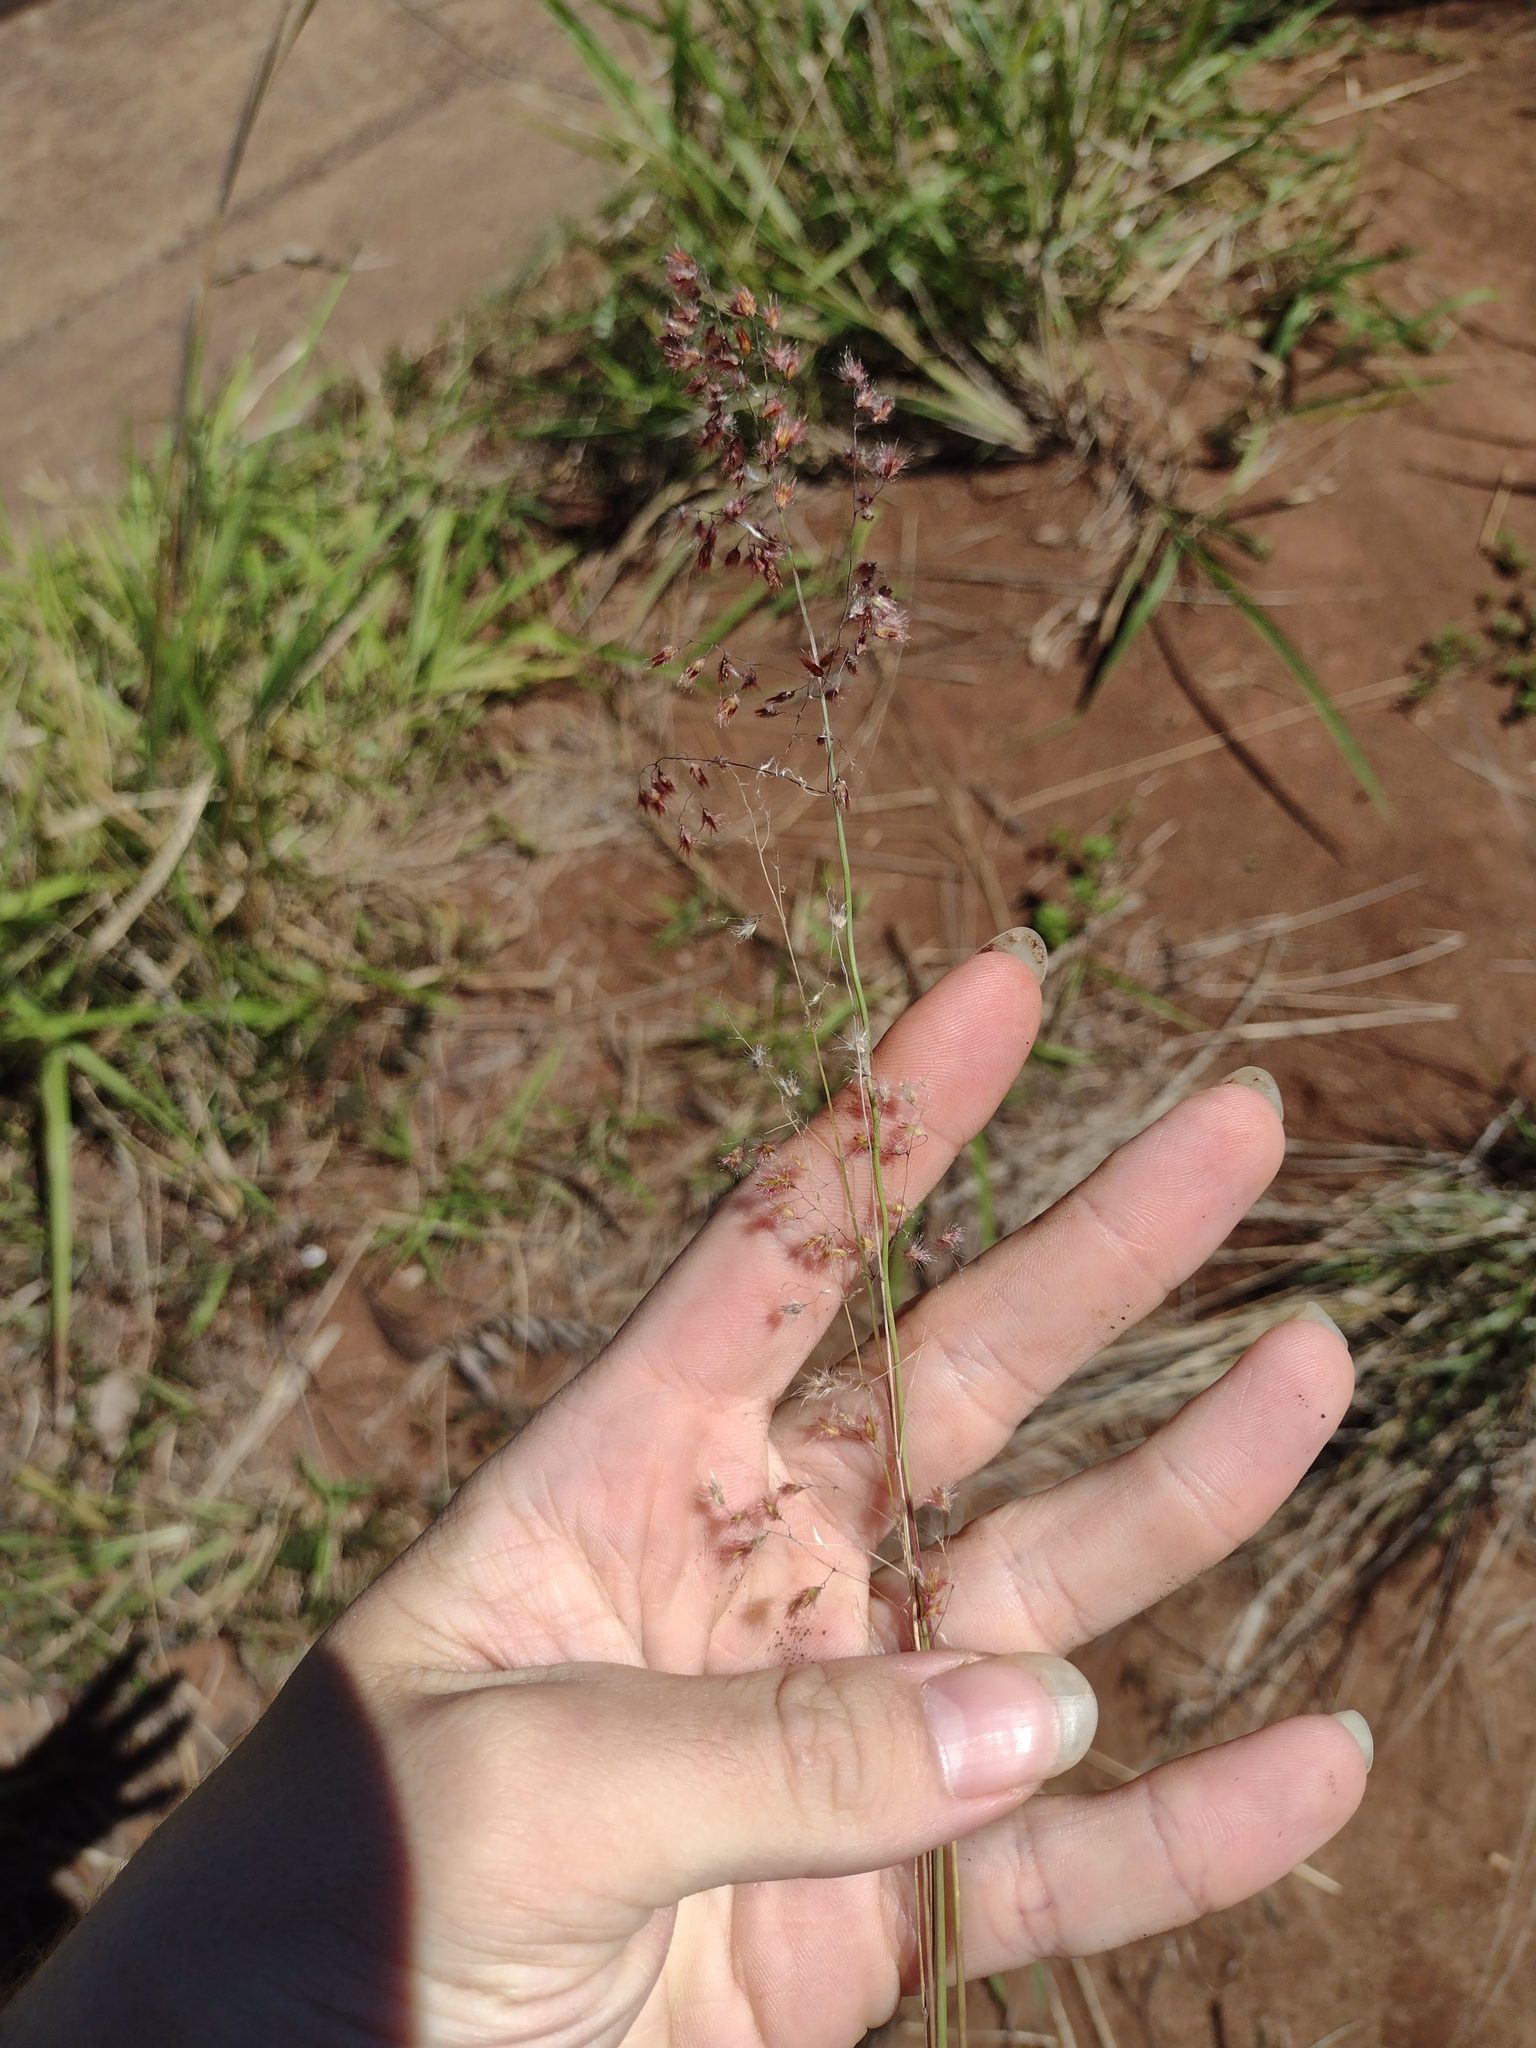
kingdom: Plantae
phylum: Tracheophyta
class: Liliopsida
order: Poales
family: Poaceae
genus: Melinis
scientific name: Melinis repens
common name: Rose natal grass
